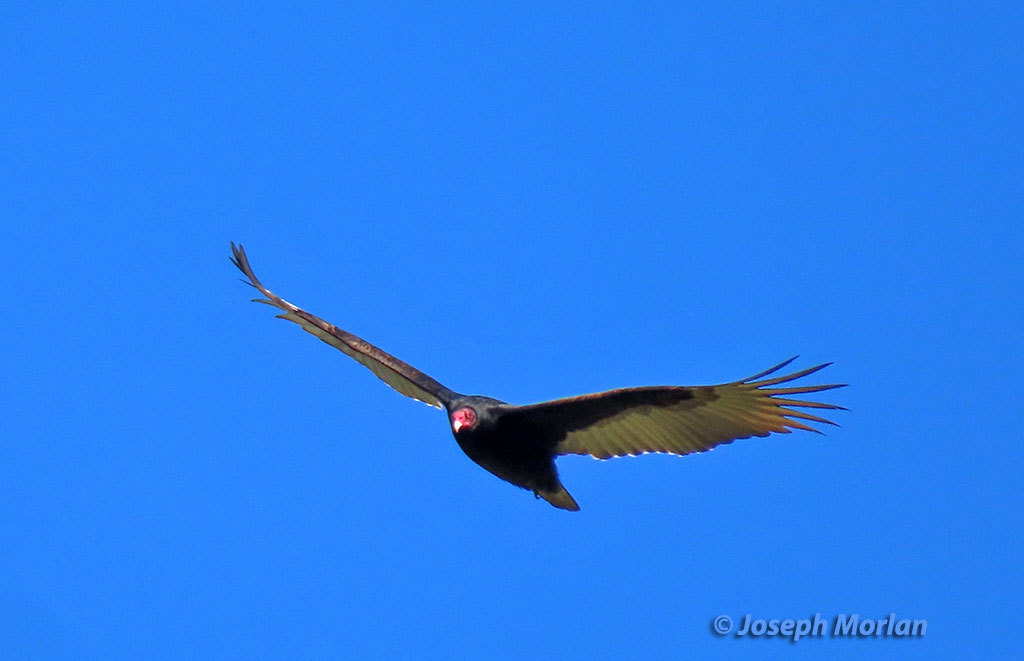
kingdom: Animalia
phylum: Chordata
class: Aves
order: Accipitriformes
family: Cathartidae
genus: Cathartes
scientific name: Cathartes aura
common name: Turkey vulture
